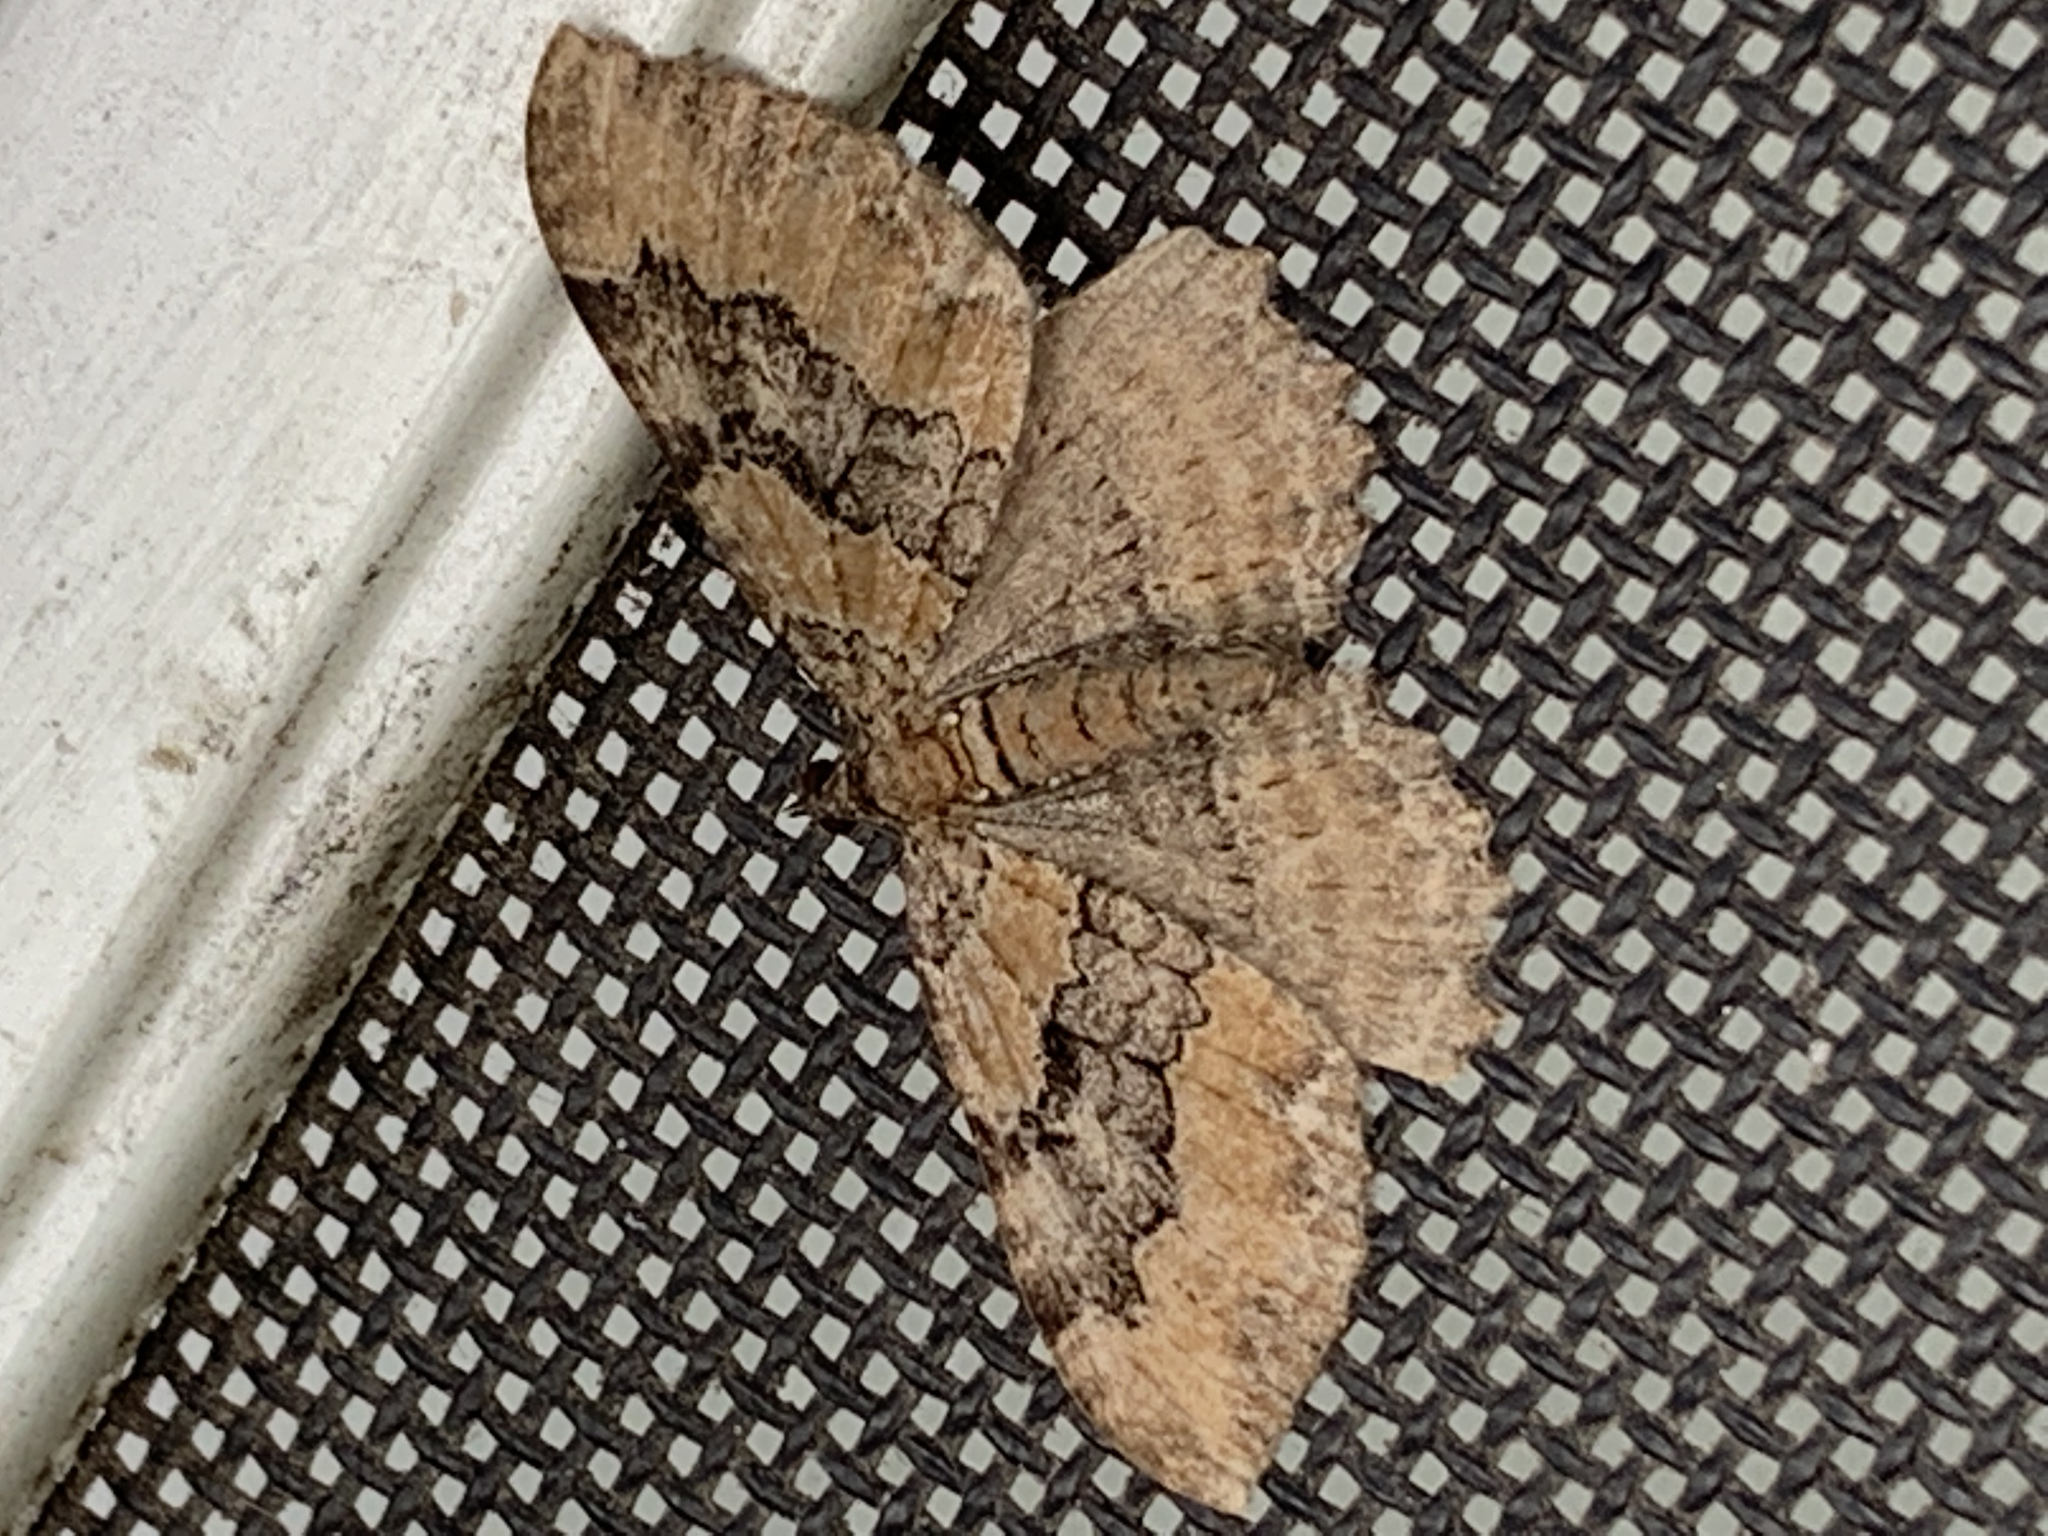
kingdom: Animalia
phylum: Arthropoda
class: Insecta
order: Lepidoptera
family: Geometridae
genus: Rheumaptera
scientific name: Rheumaptera
